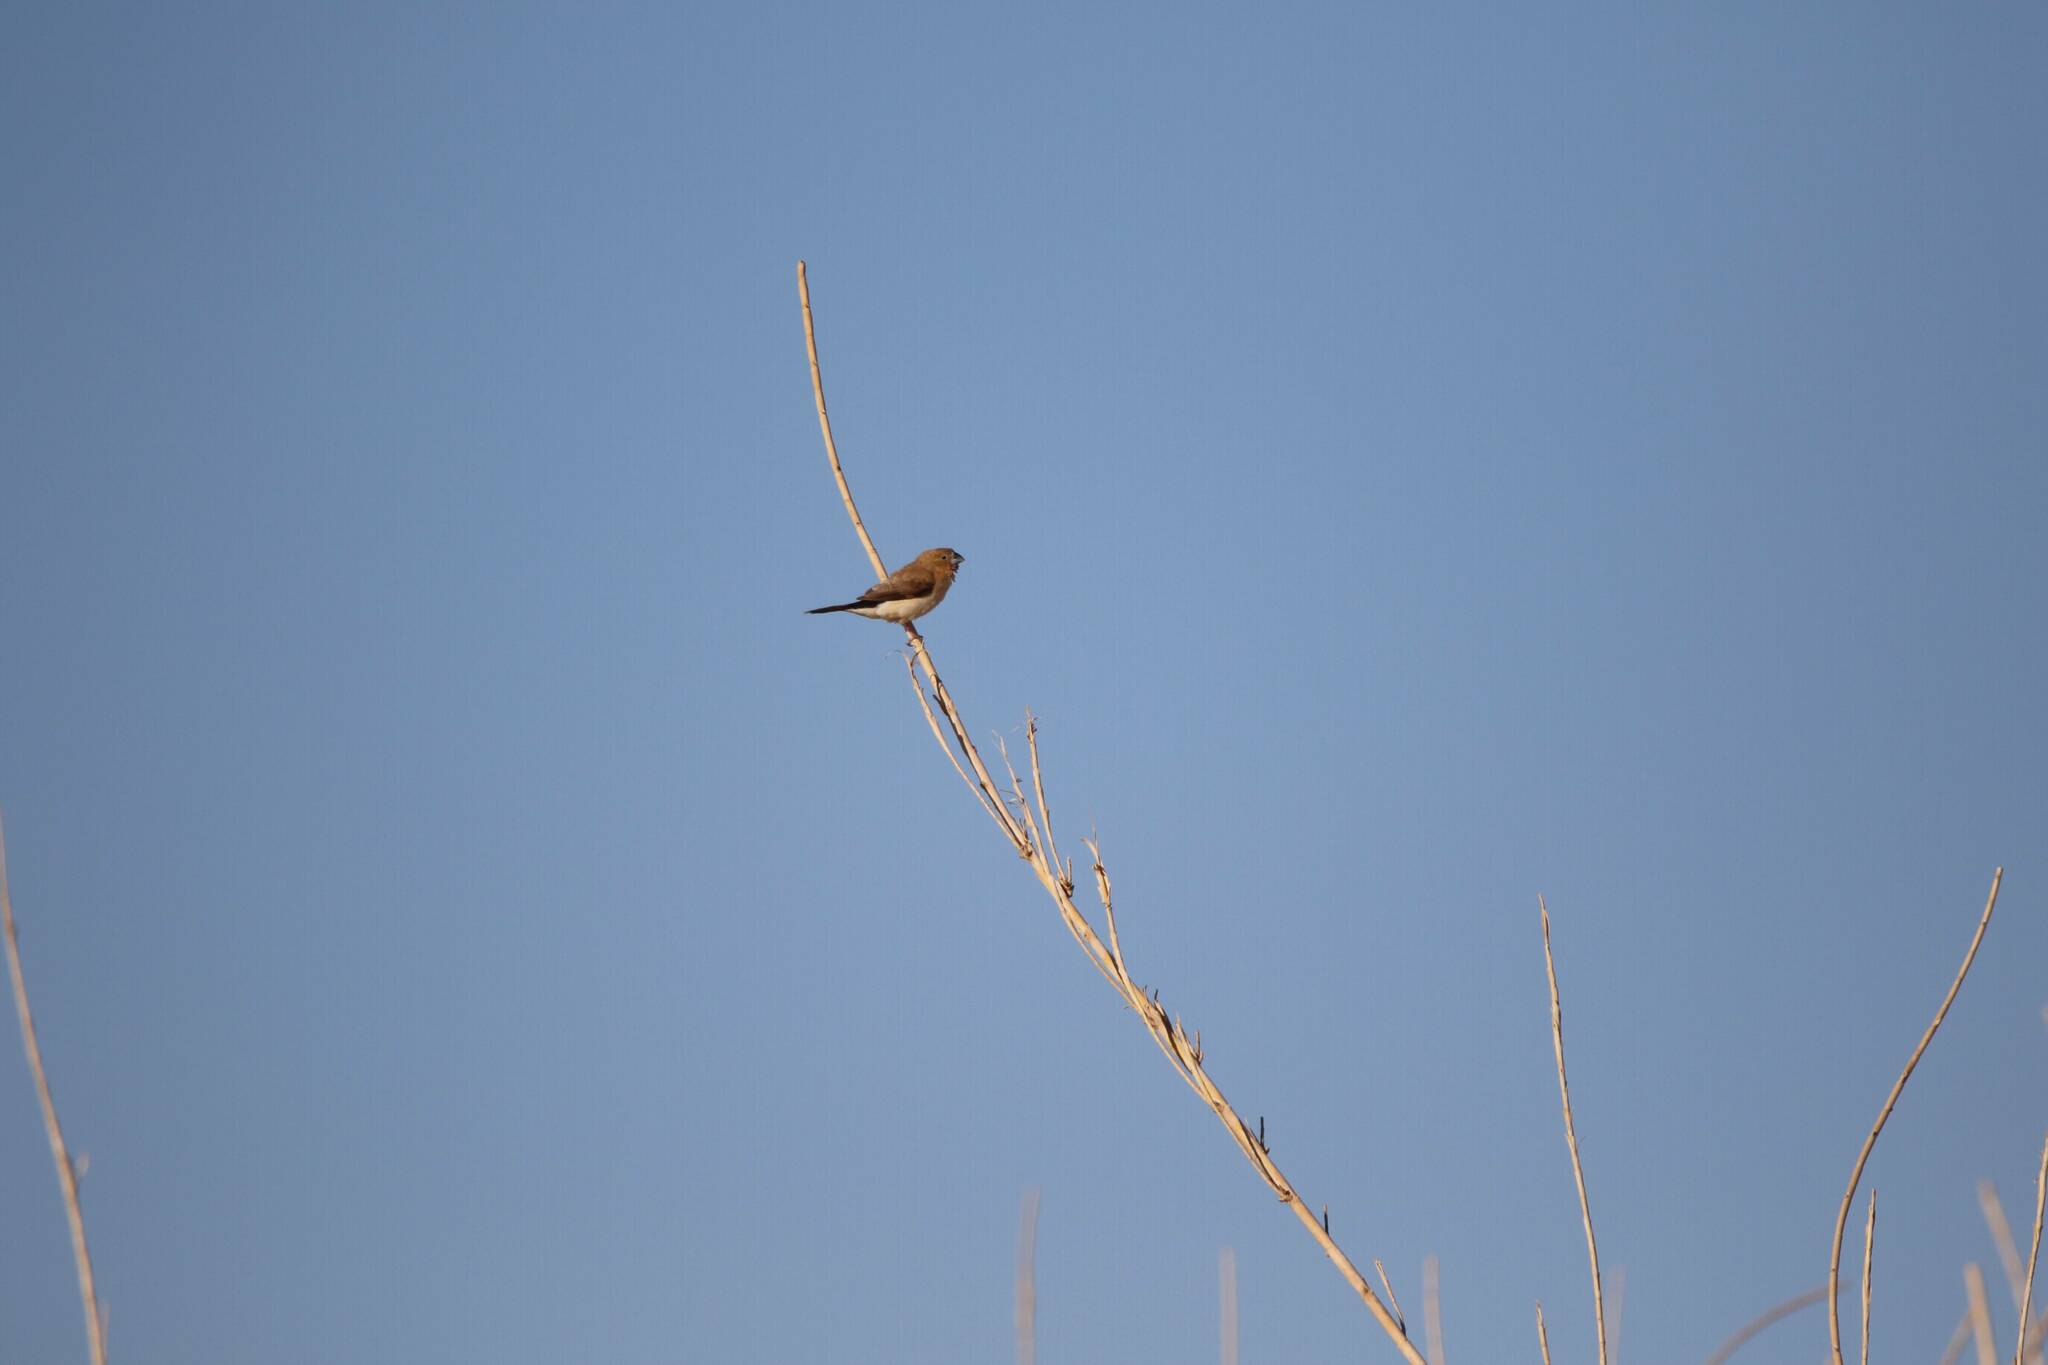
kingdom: Animalia
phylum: Chordata
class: Aves
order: Passeriformes
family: Estrildidae
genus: Euodice
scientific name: Euodice cantans
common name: African silverbill
